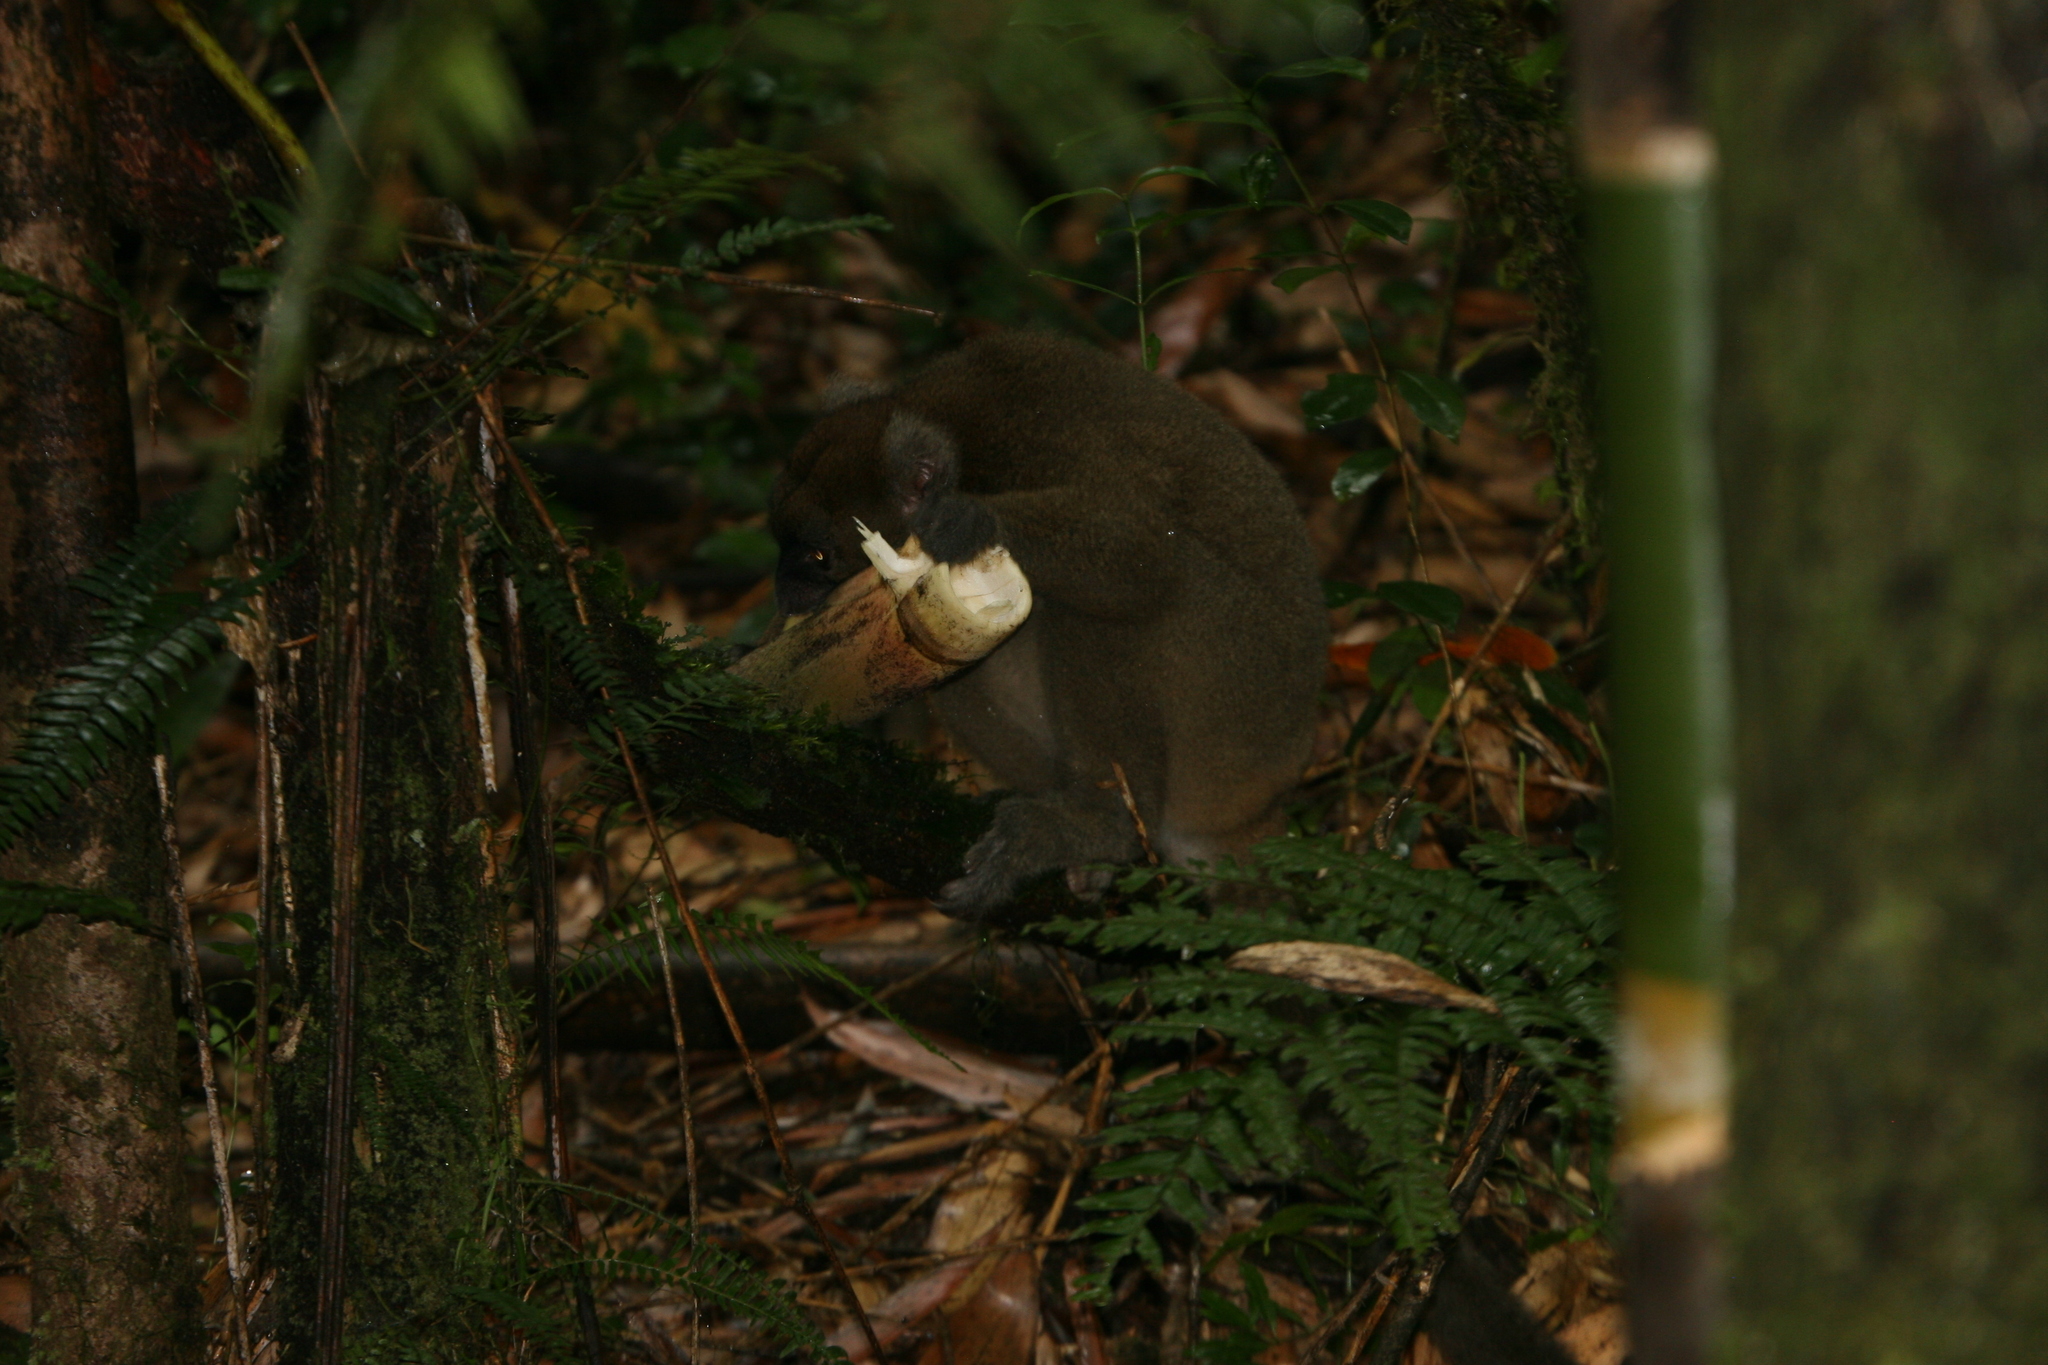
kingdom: Animalia
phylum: Chordata
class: Mammalia
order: Primates
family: Lemuridae
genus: Prolemur
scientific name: Prolemur simus
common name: Greater bamboo lemur
